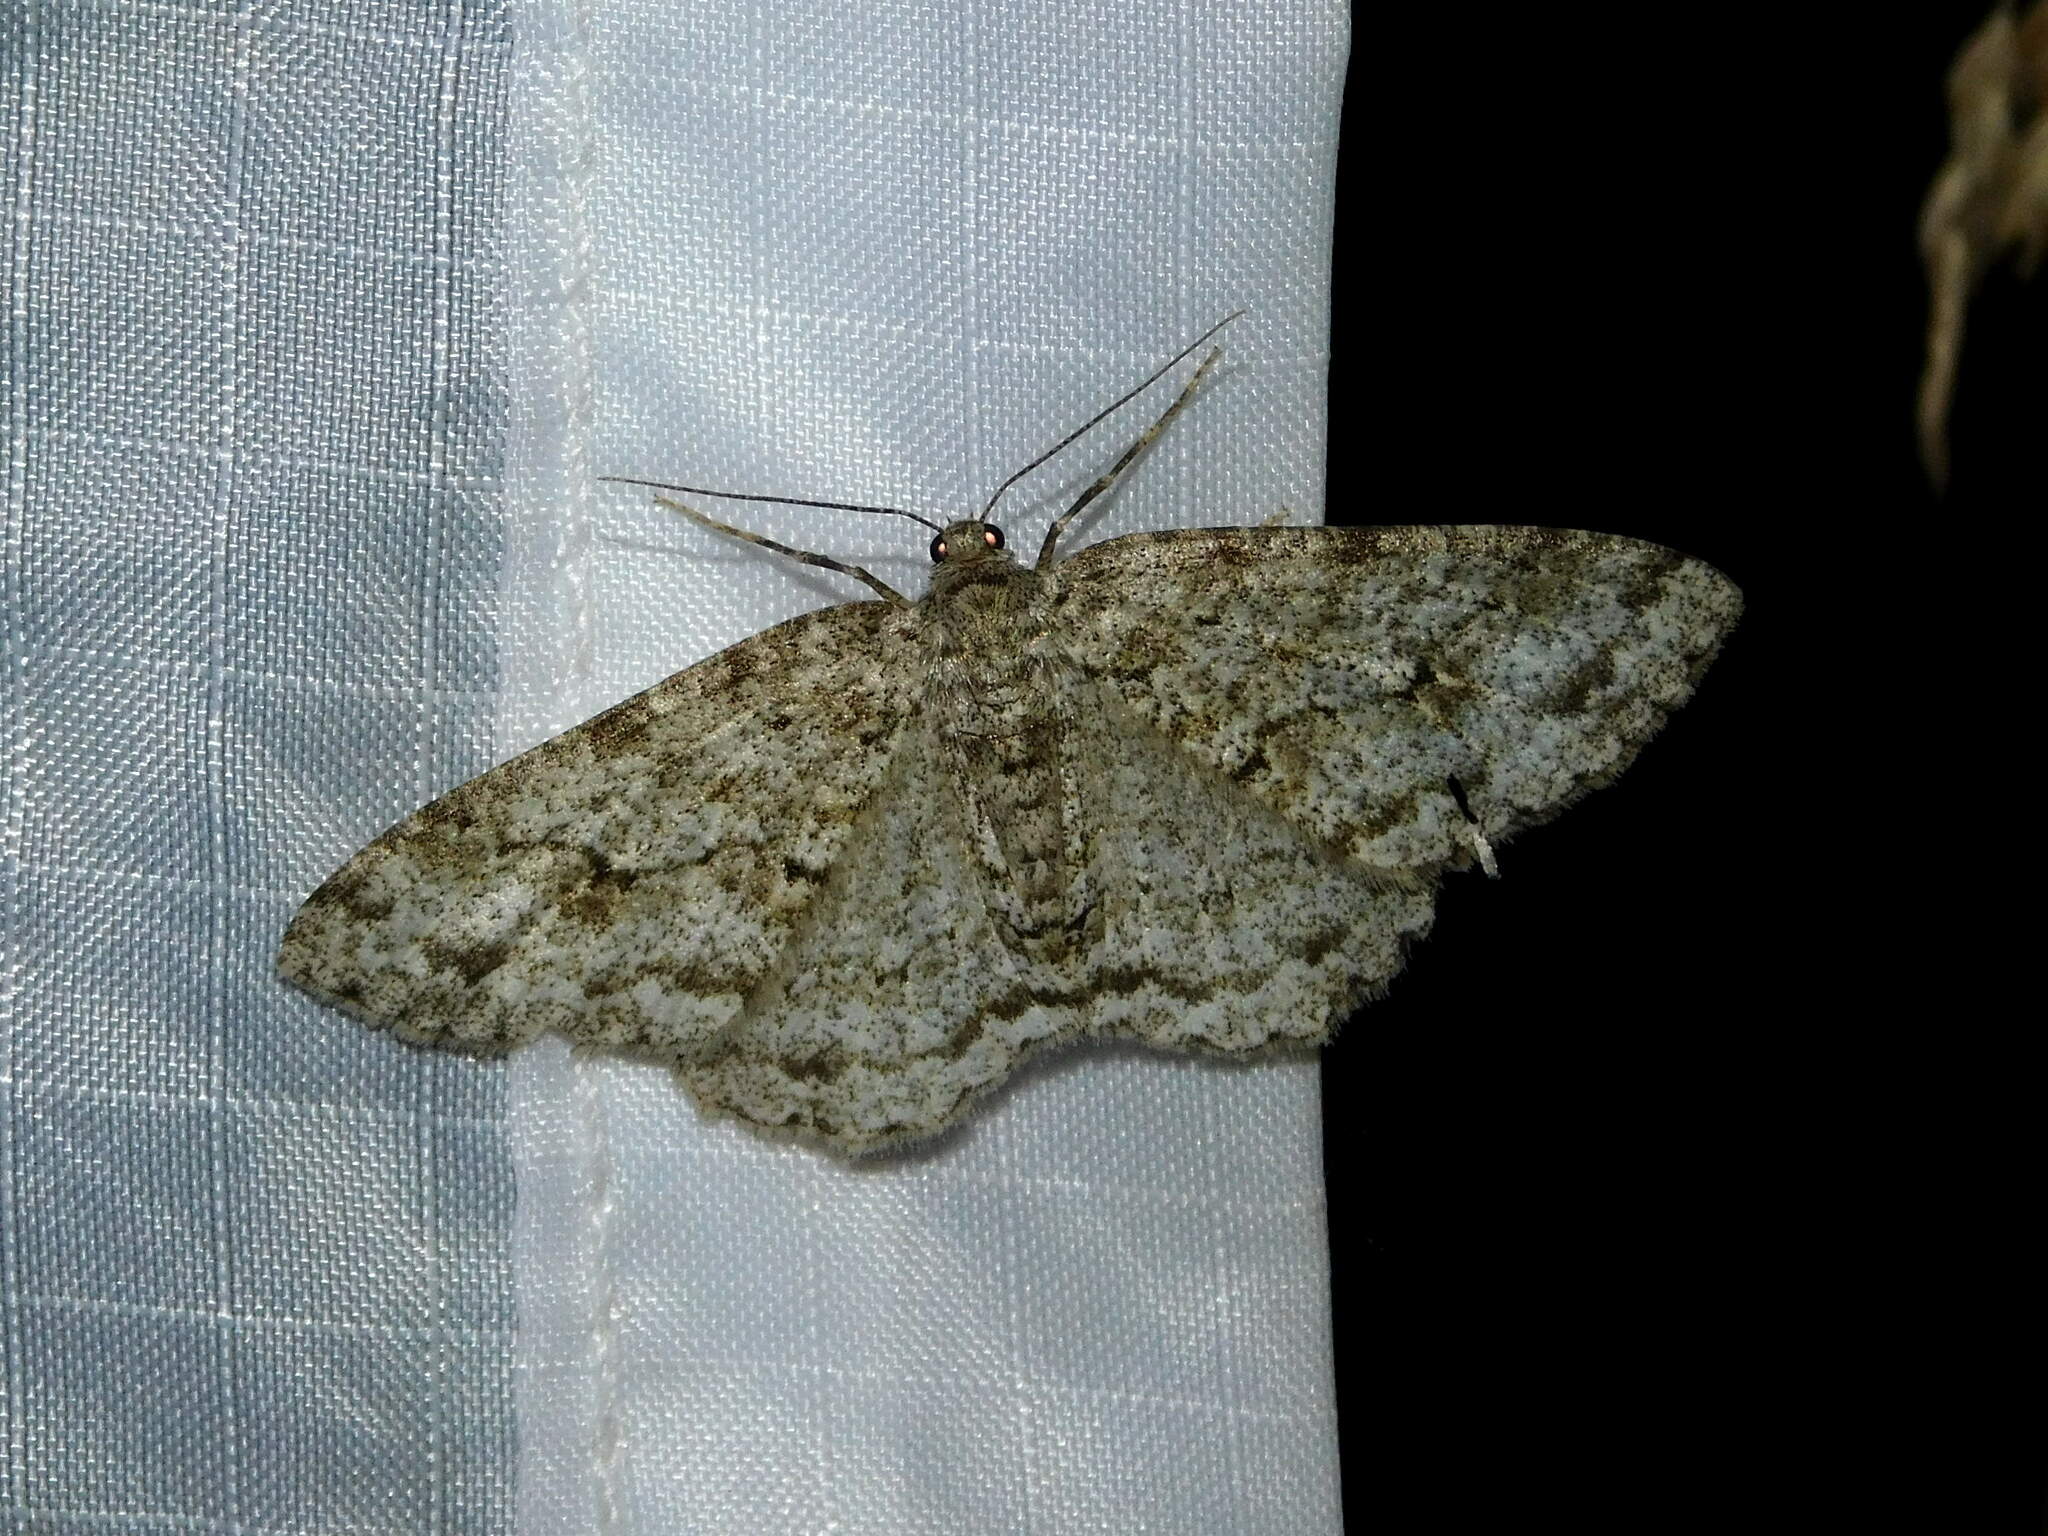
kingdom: Animalia
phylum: Arthropoda
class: Insecta
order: Lepidoptera
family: Geometridae
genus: Ectropis
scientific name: Ectropis crepuscularia
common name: Engrailed
